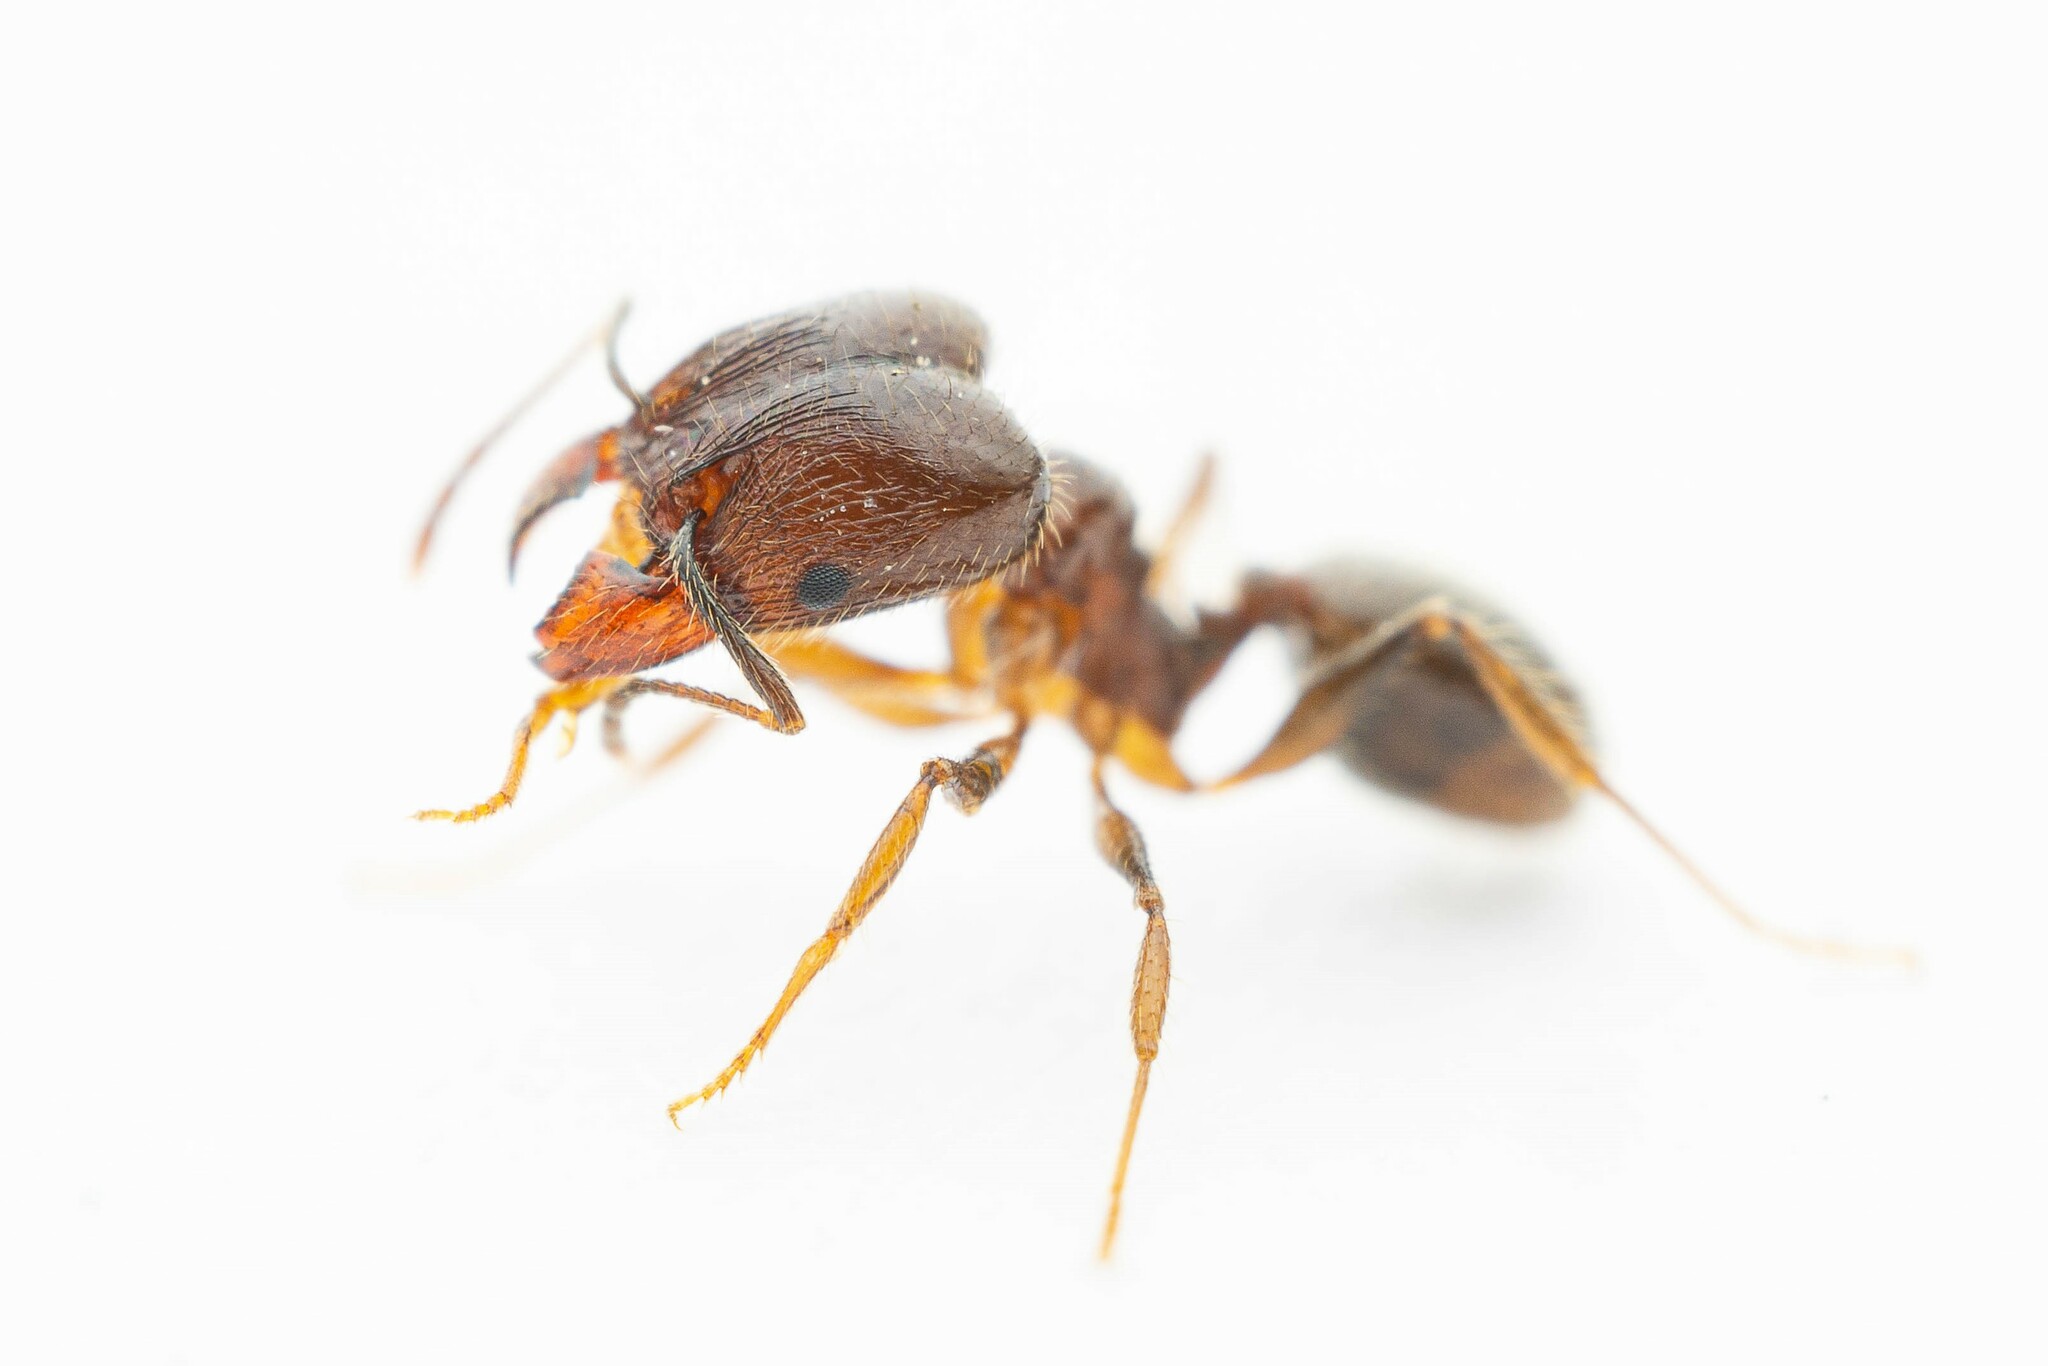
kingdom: Animalia
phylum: Arthropoda
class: Insecta
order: Hymenoptera
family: Formicidae
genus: Pheidole
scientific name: Pheidole
